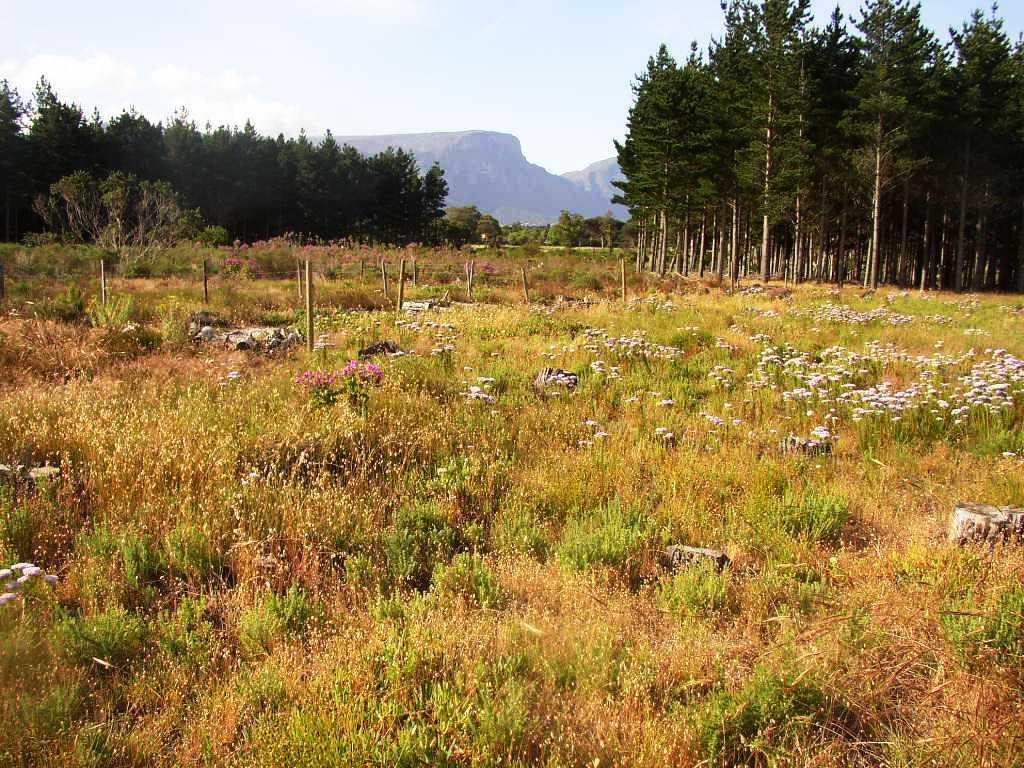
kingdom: Plantae
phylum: Tracheophyta
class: Magnoliopsida
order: Lamiales
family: Scrophulariaceae
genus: Pseudoselago
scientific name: Pseudoselago spuria
